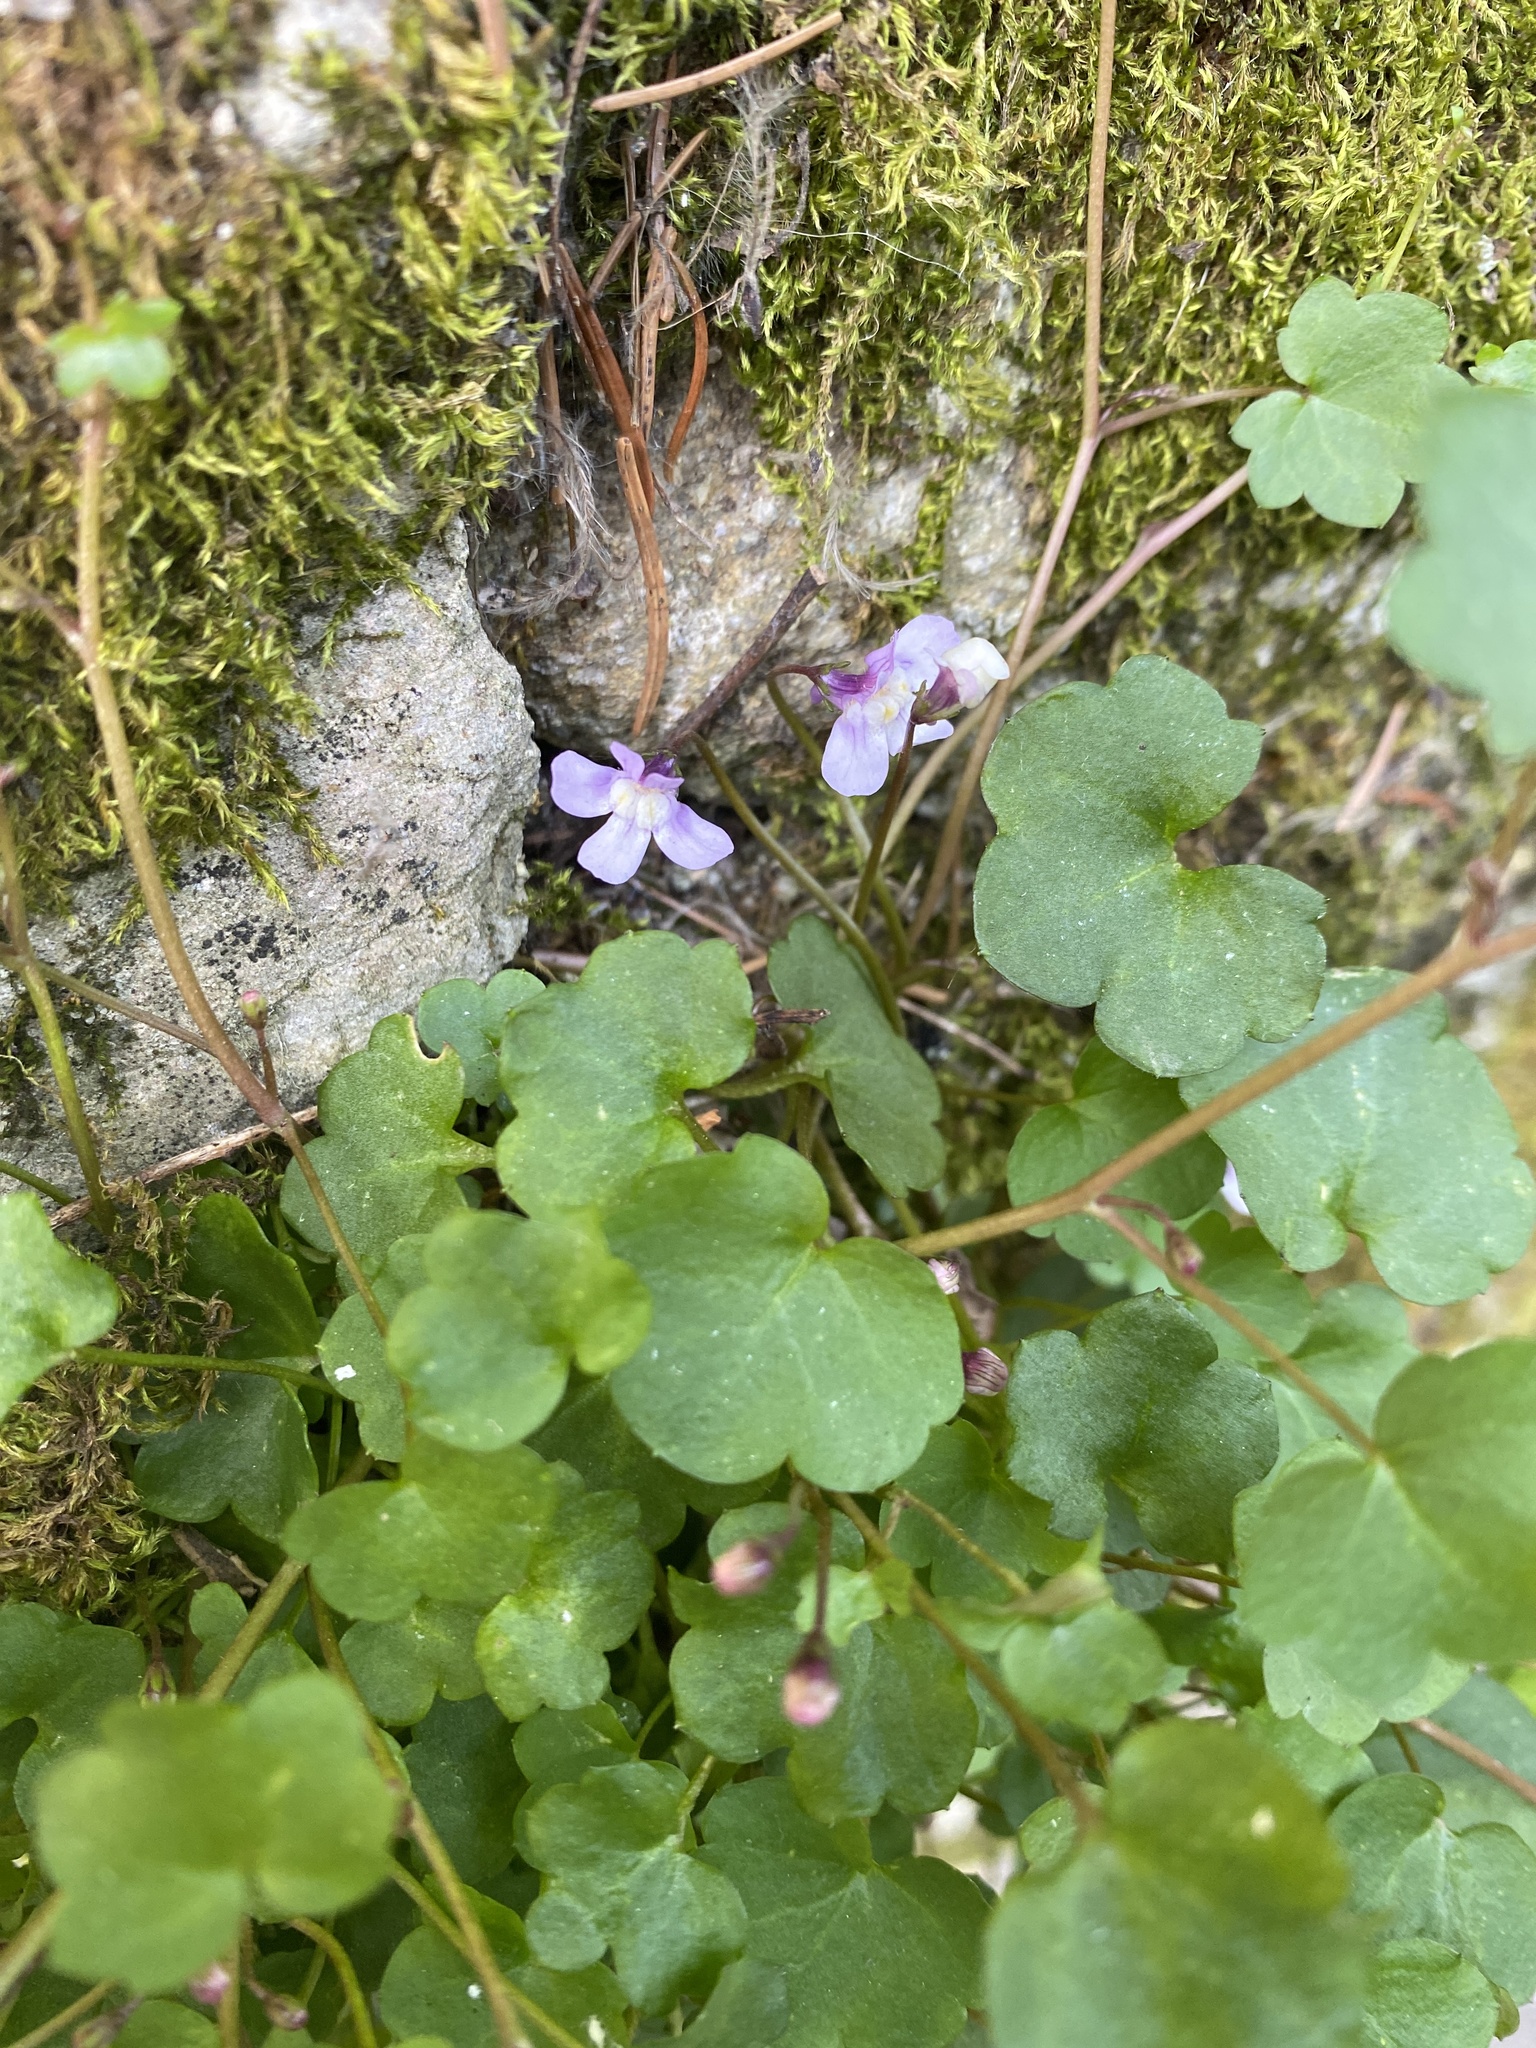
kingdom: Plantae
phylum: Tracheophyta
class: Magnoliopsida
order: Lamiales
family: Plantaginaceae
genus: Cymbalaria
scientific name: Cymbalaria muralis
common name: Ivy-leaved toadflax
